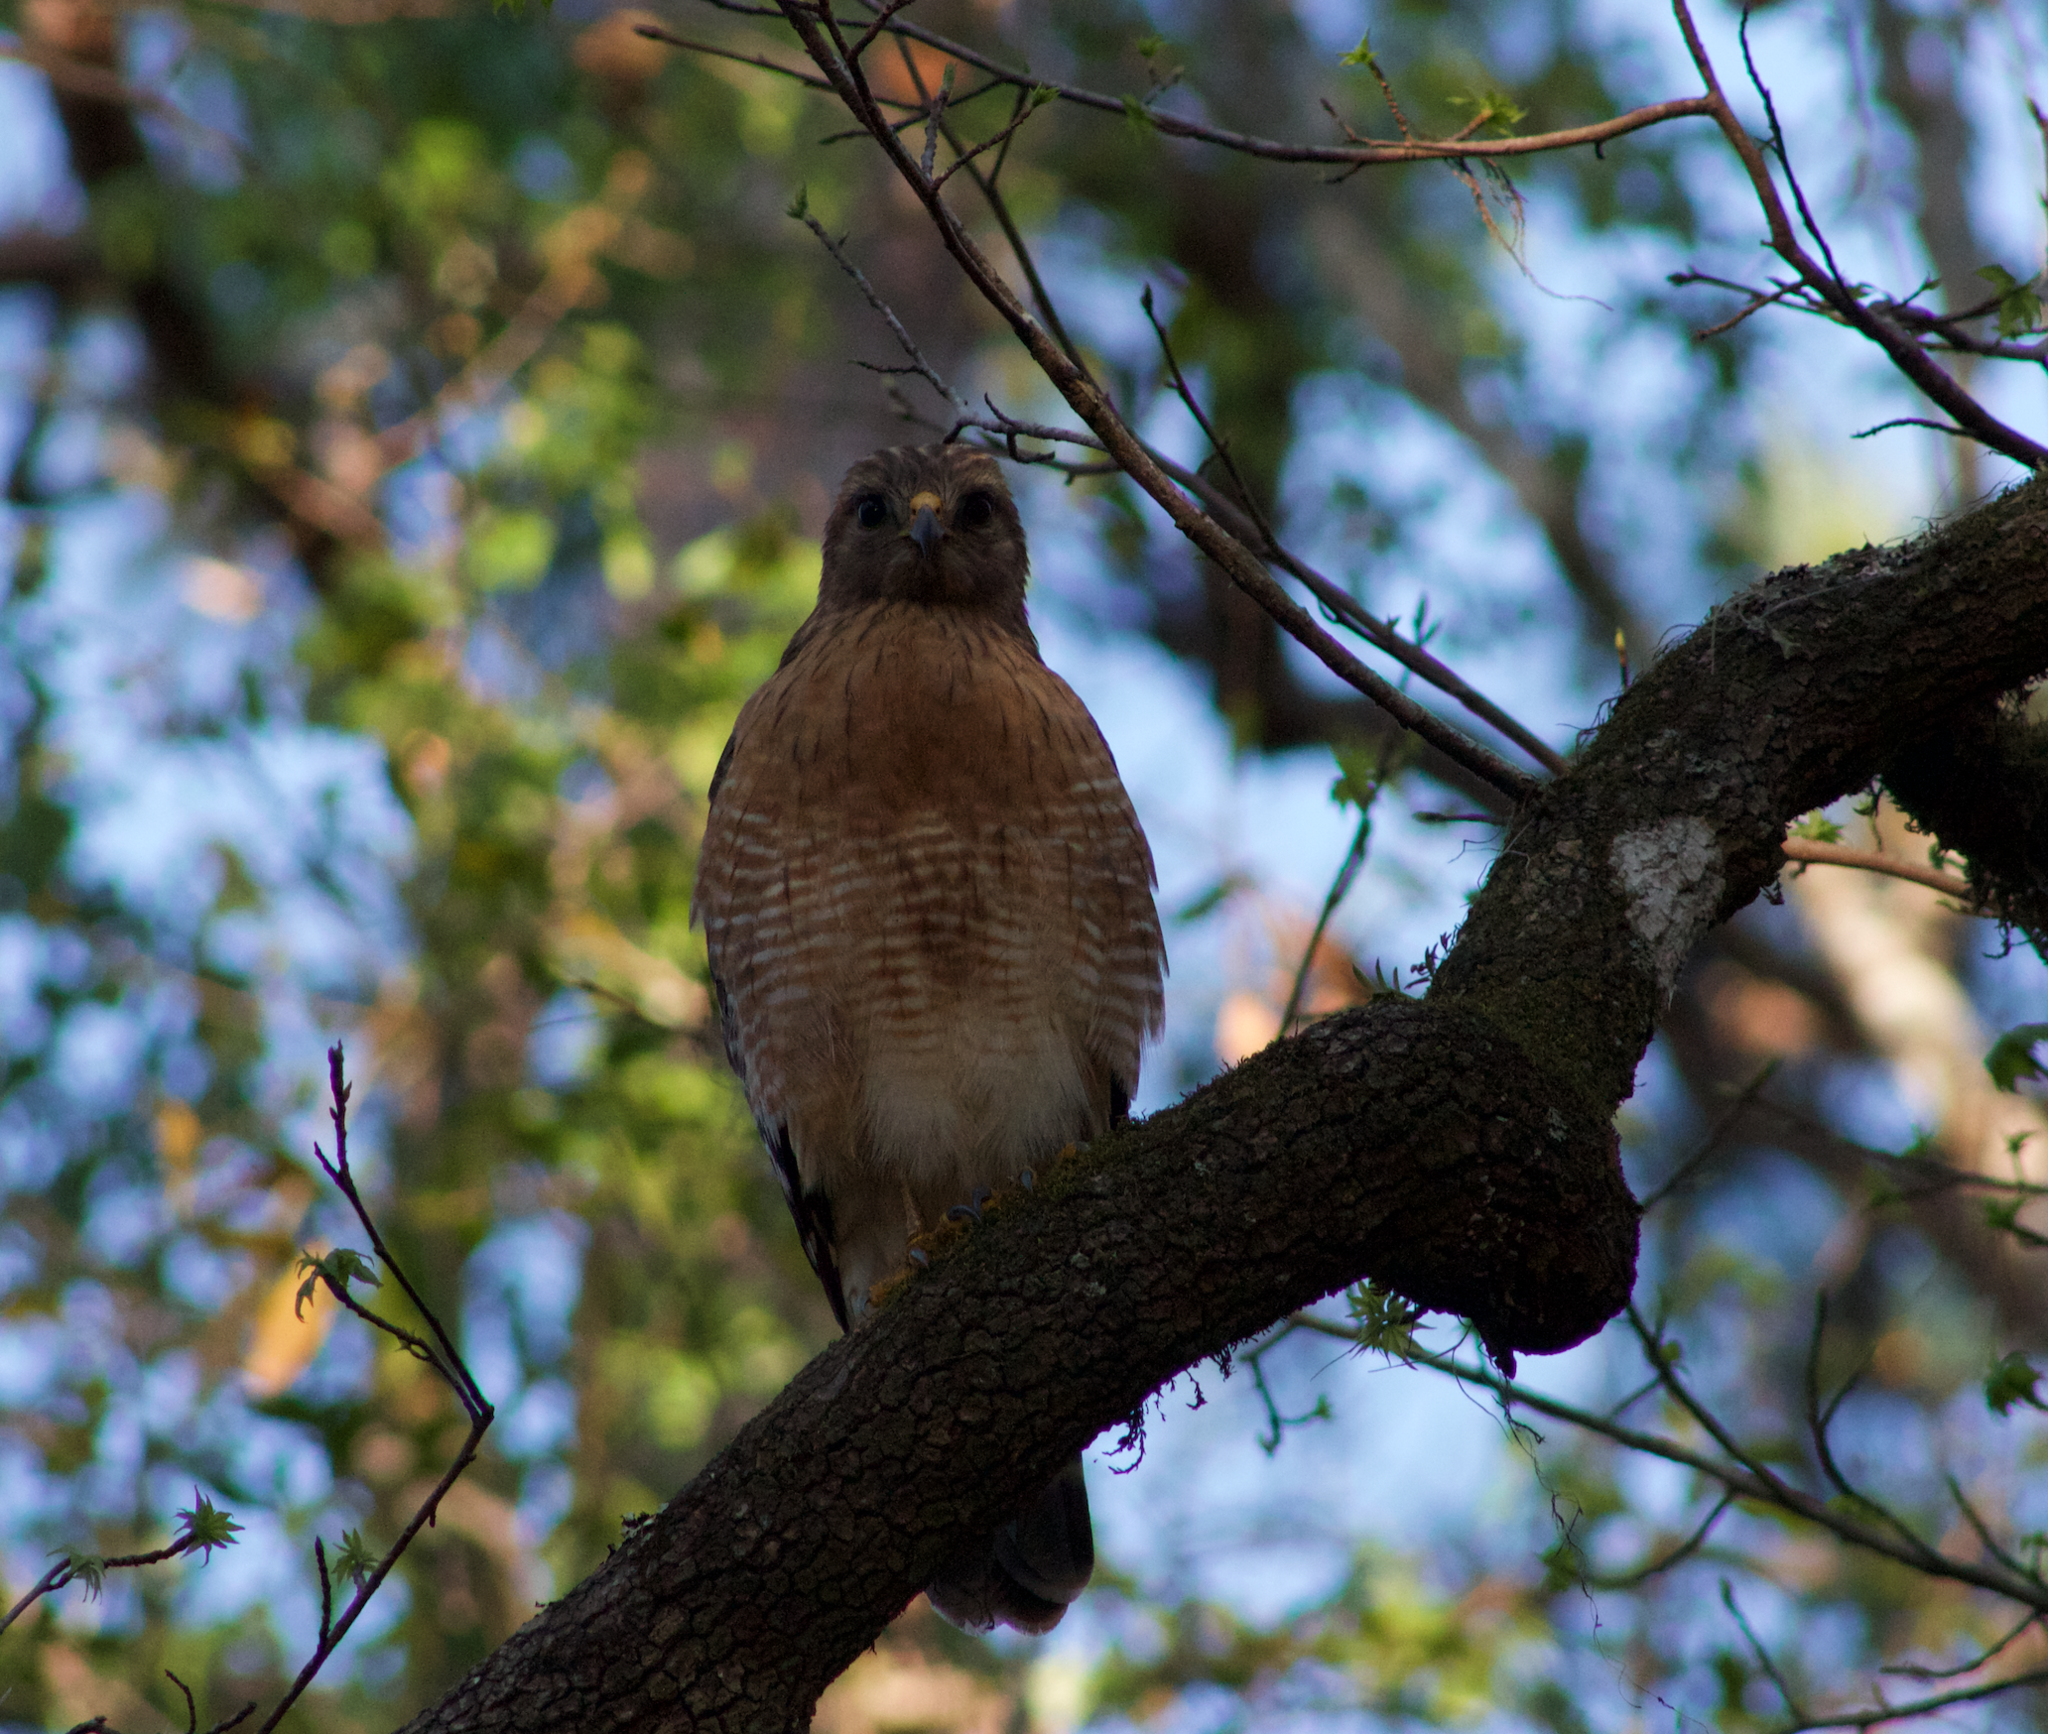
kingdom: Animalia
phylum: Chordata
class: Aves
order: Accipitriformes
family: Accipitridae
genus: Buteo
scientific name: Buteo lineatus
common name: Red-shouldered hawk
